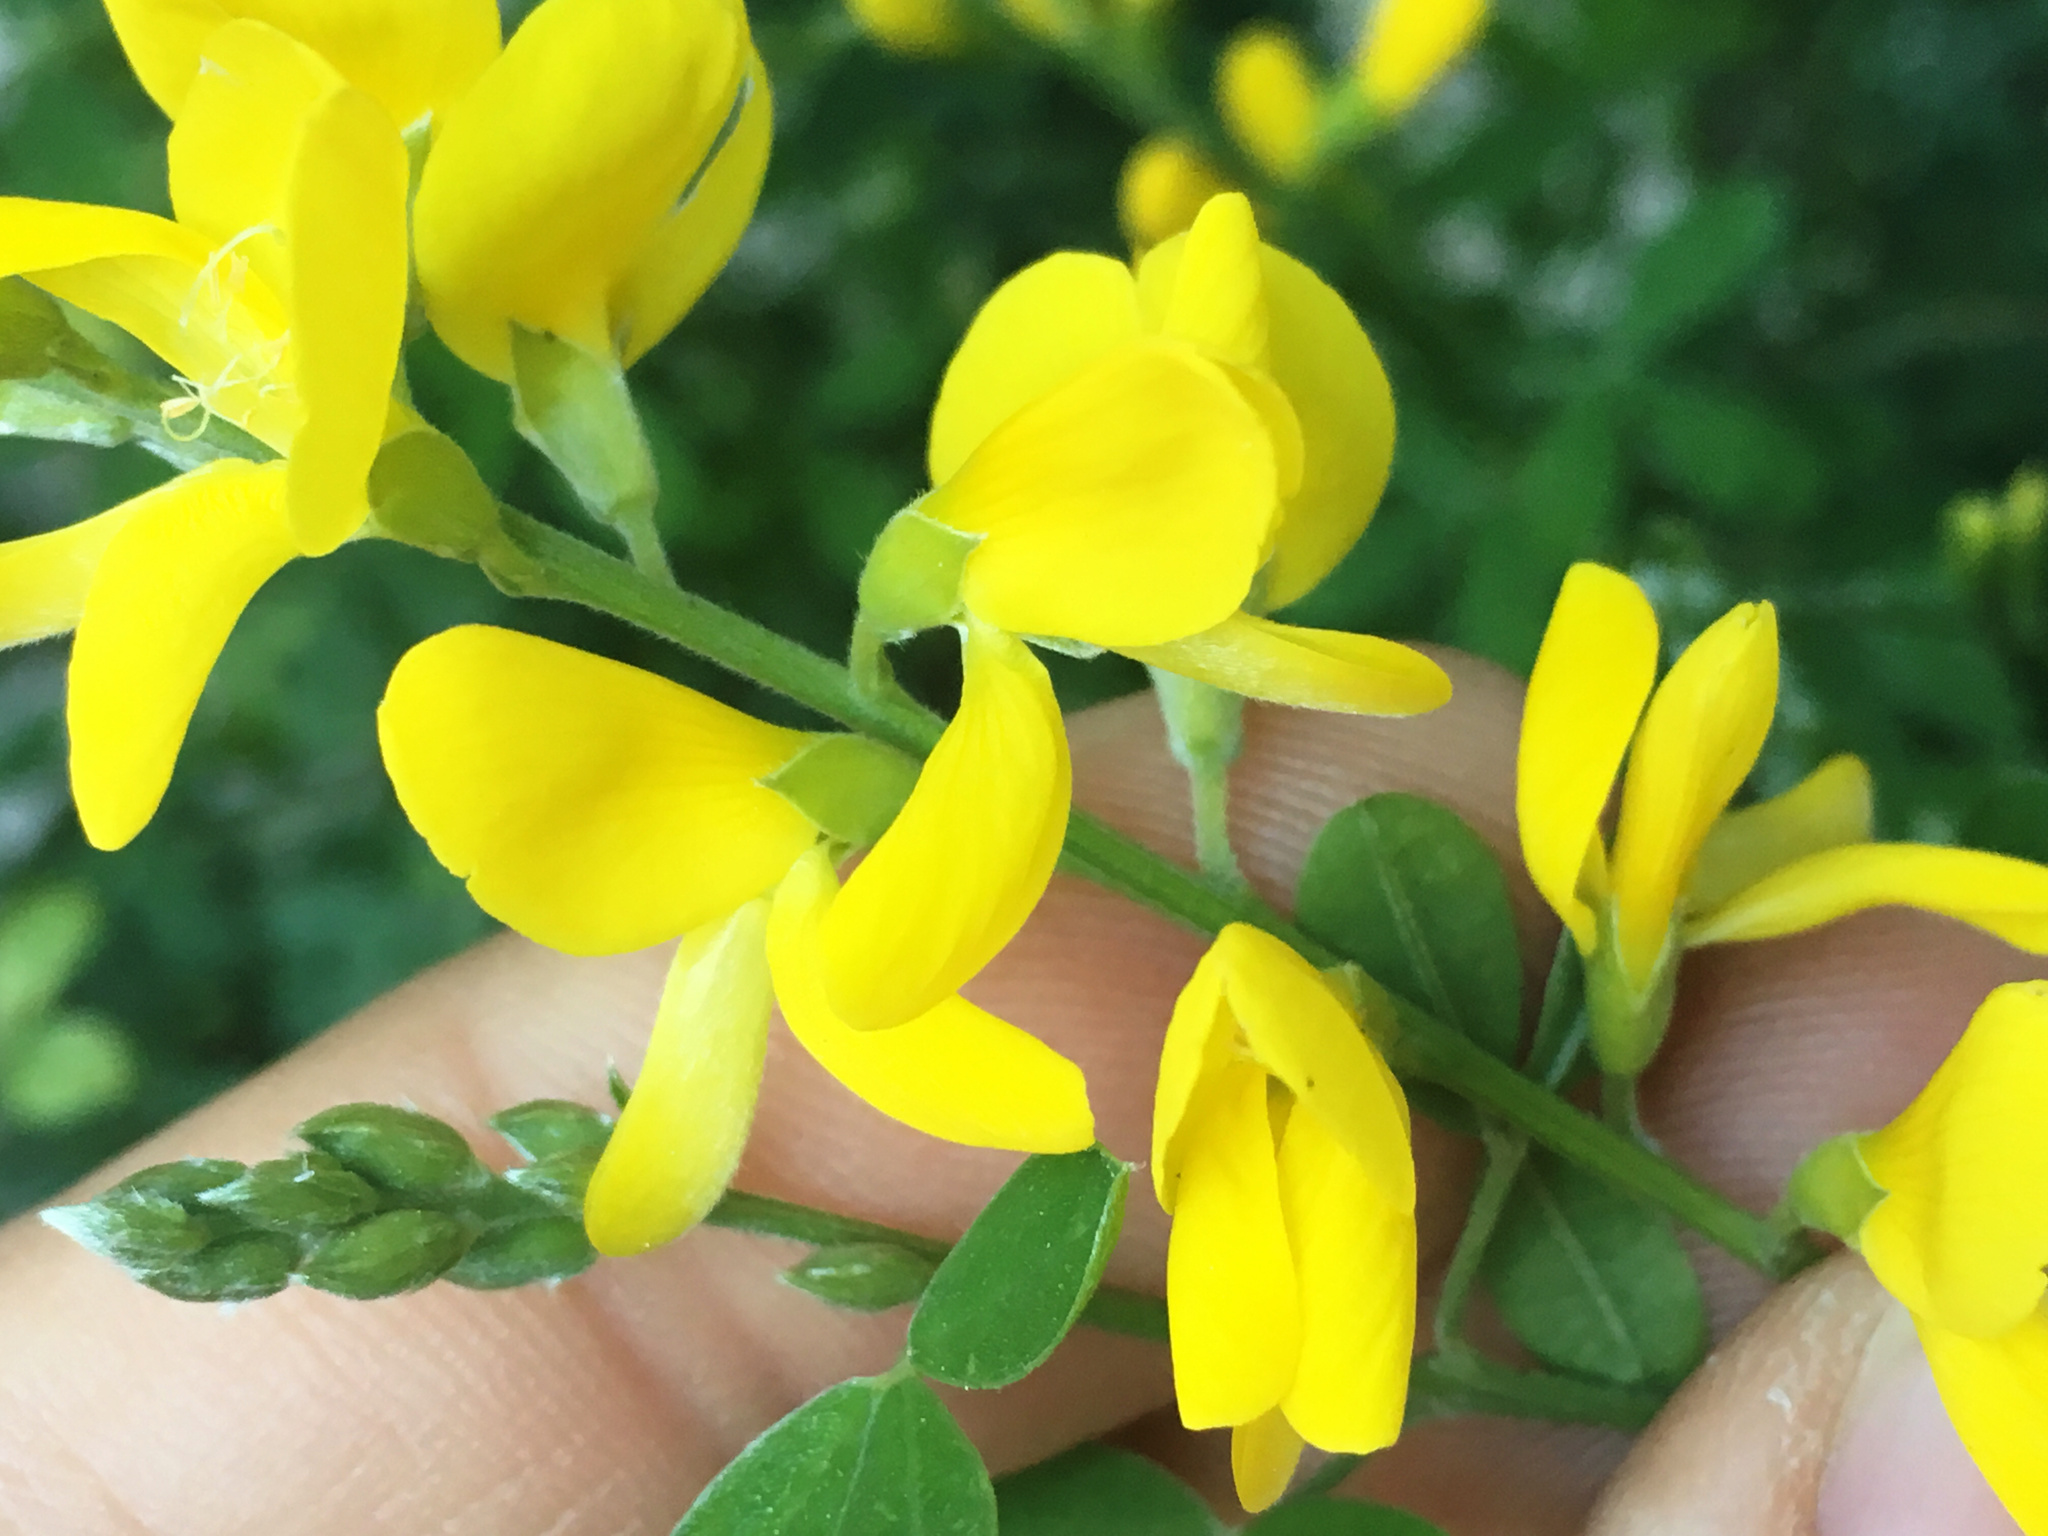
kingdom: Plantae
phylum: Tracheophyta
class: Magnoliopsida
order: Fabales
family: Fabaceae
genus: Genista
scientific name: Genista monspessulana
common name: Montpellier broom
